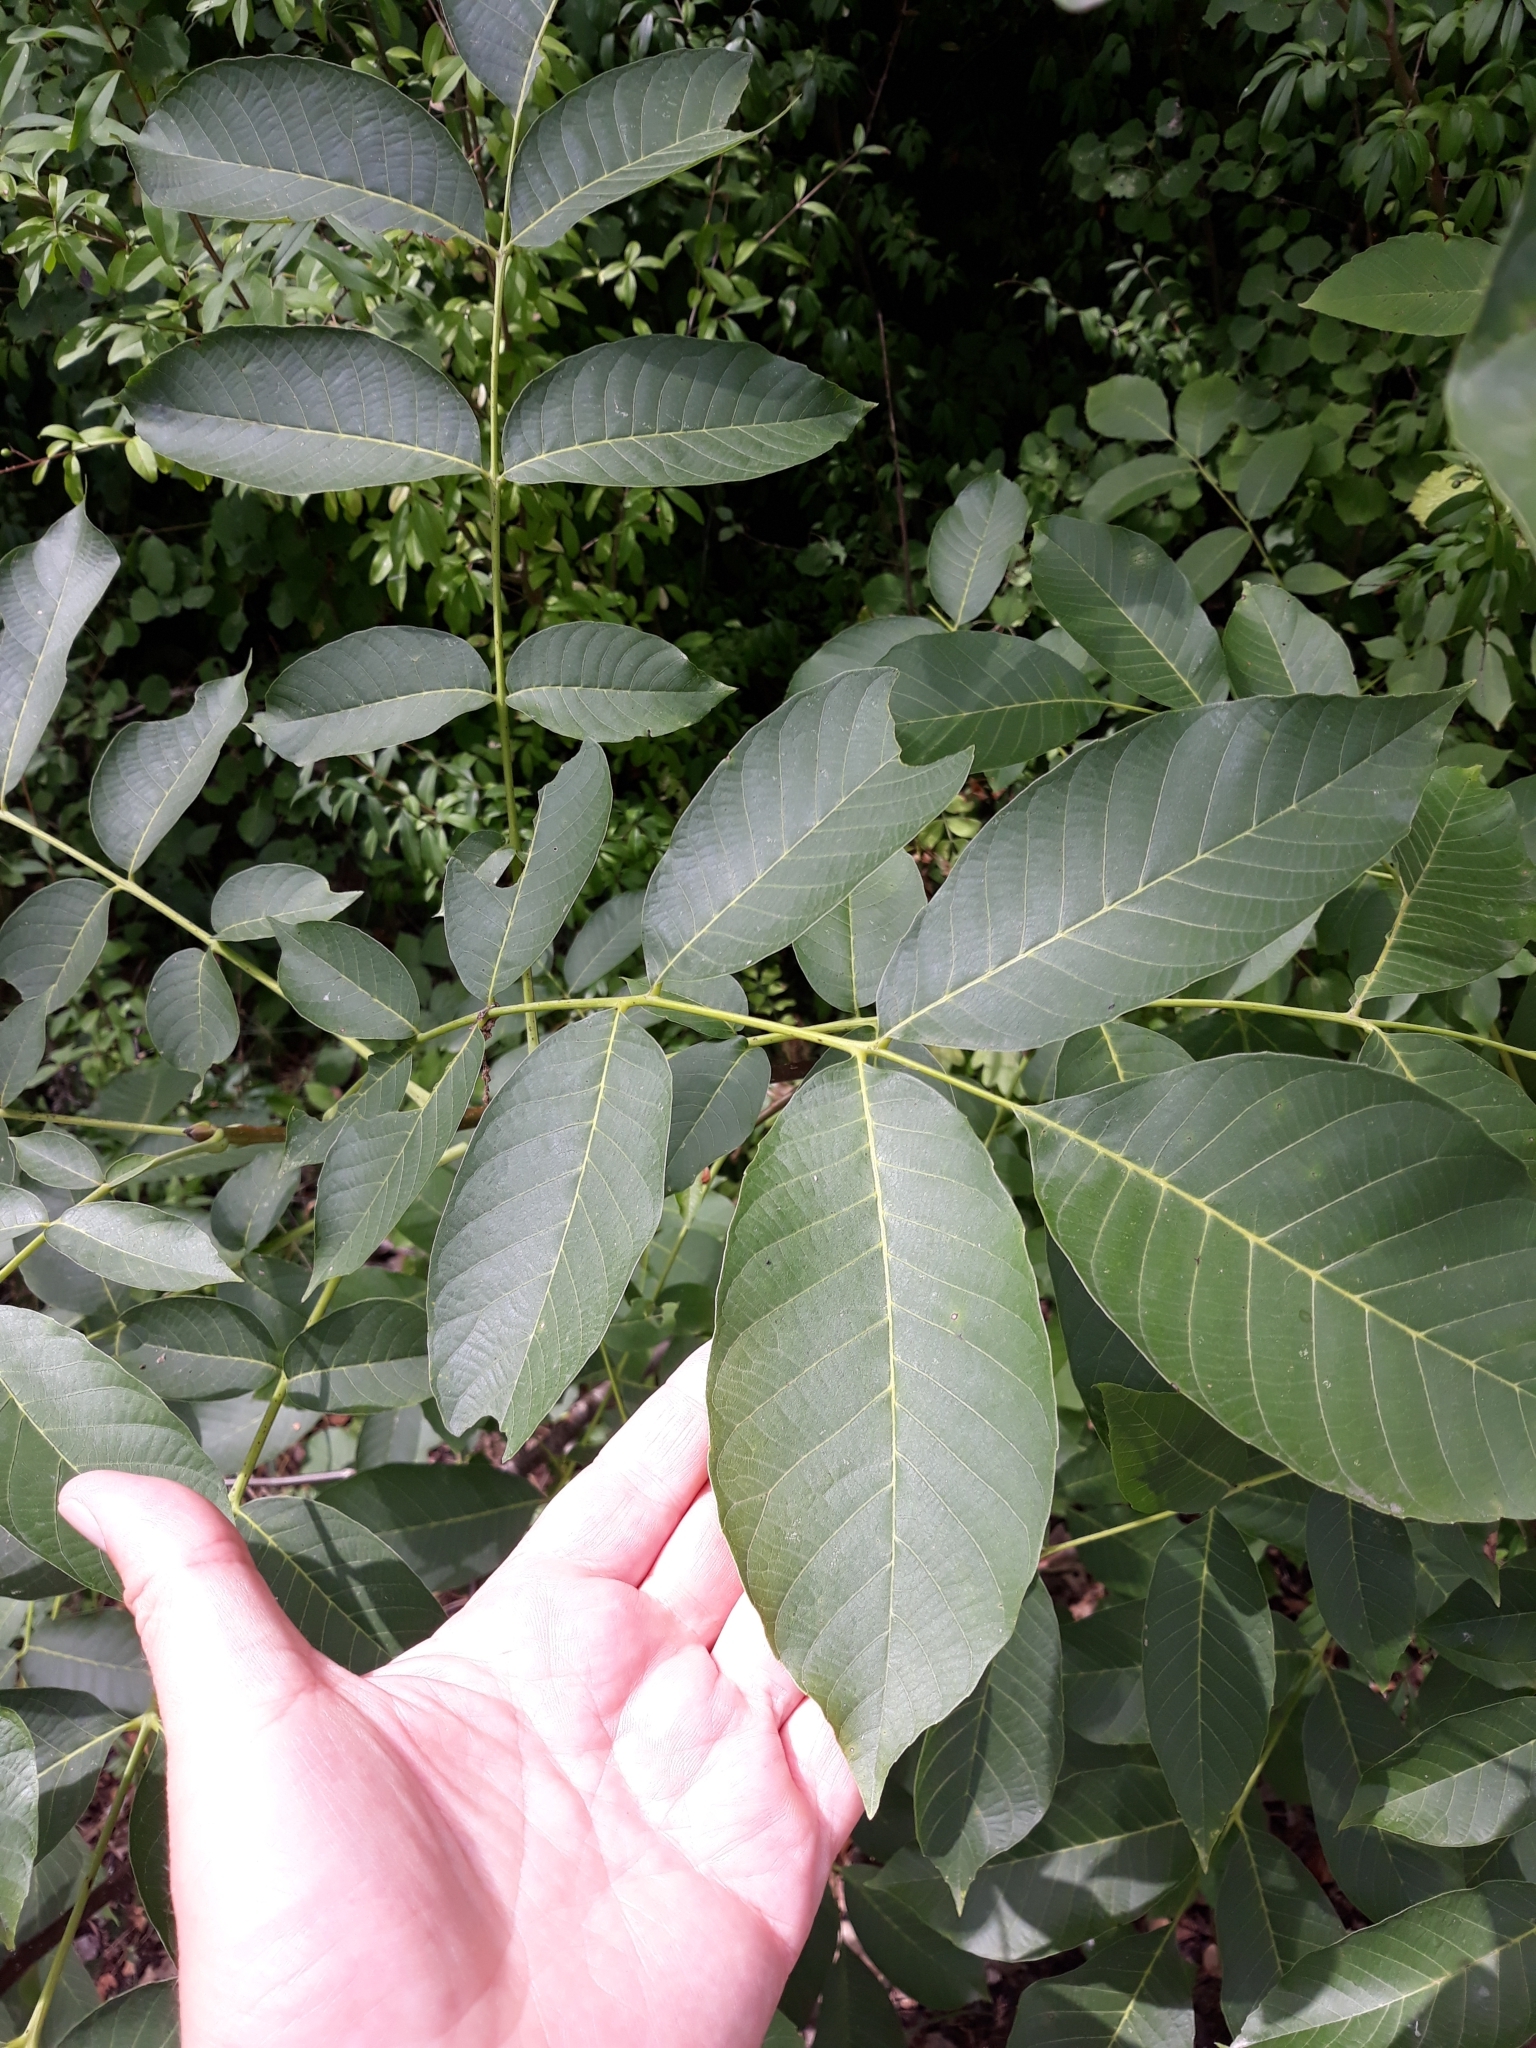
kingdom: Plantae
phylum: Tracheophyta
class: Magnoliopsida
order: Fagales
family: Juglandaceae
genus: Juglans
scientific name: Juglans regia
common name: Walnut
